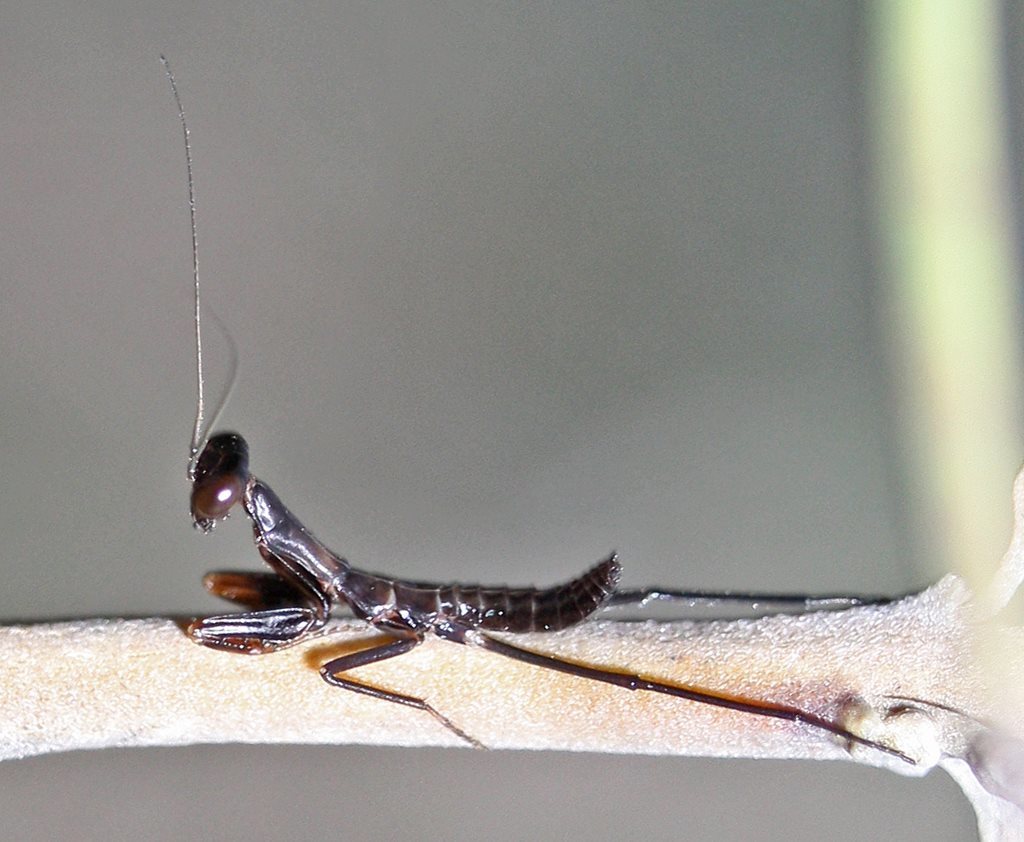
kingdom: Animalia
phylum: Arthropoda
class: Insecta
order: Mantodea
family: Mantidae
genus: Sphodropoda
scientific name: Sphodropoda tristis
